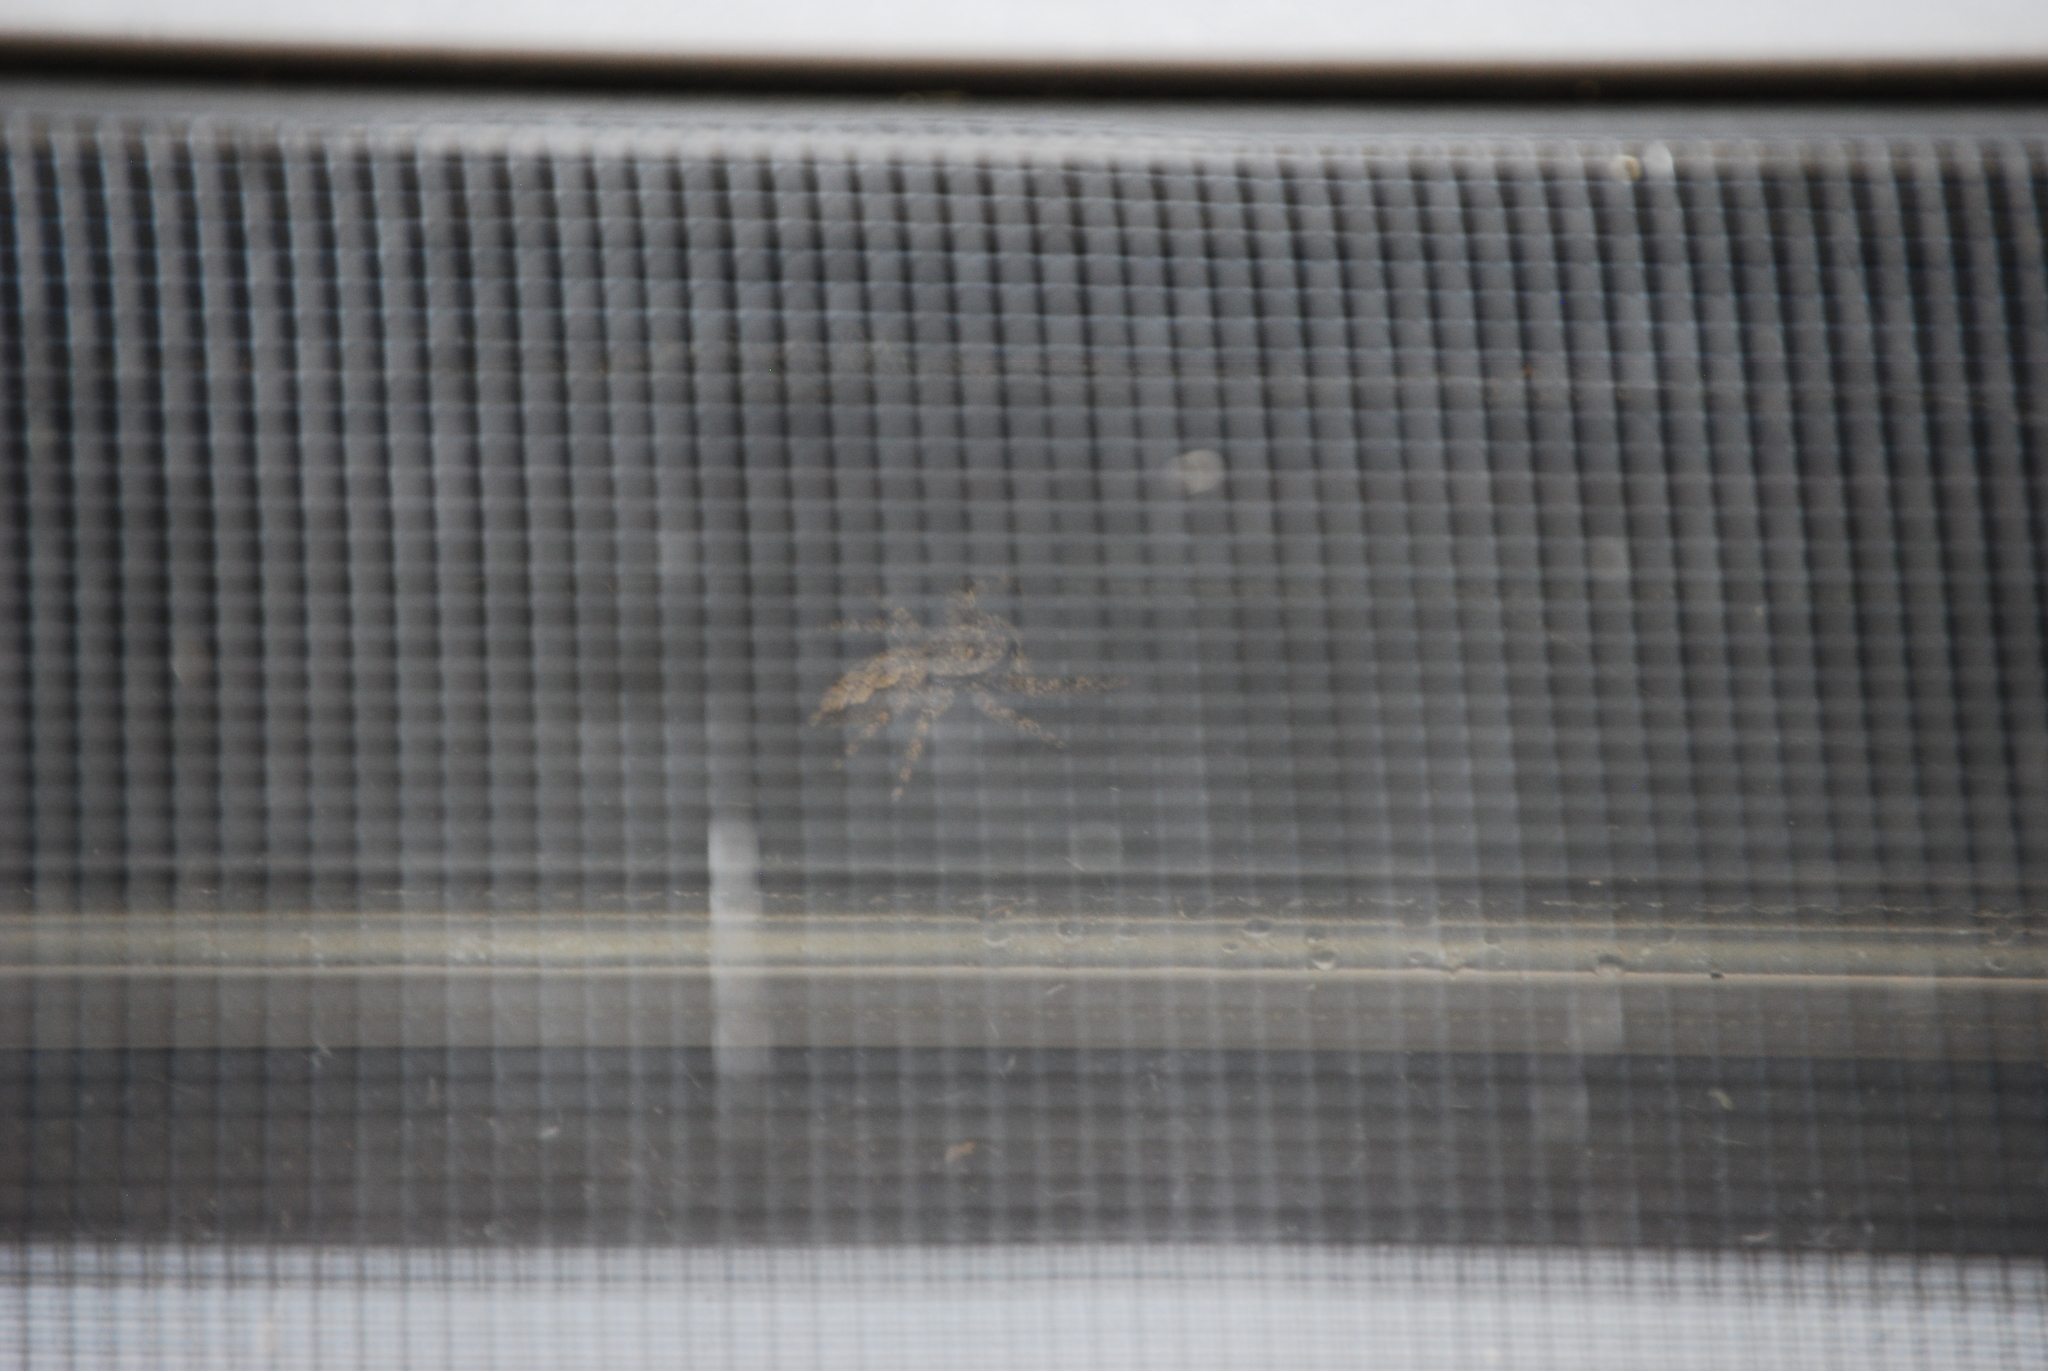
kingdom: Animalia
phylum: Arthropoda
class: Arachnida
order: Araneae
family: Salticidae
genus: Platycryptus
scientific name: Platycryptus undatus
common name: Tan jumping spider
